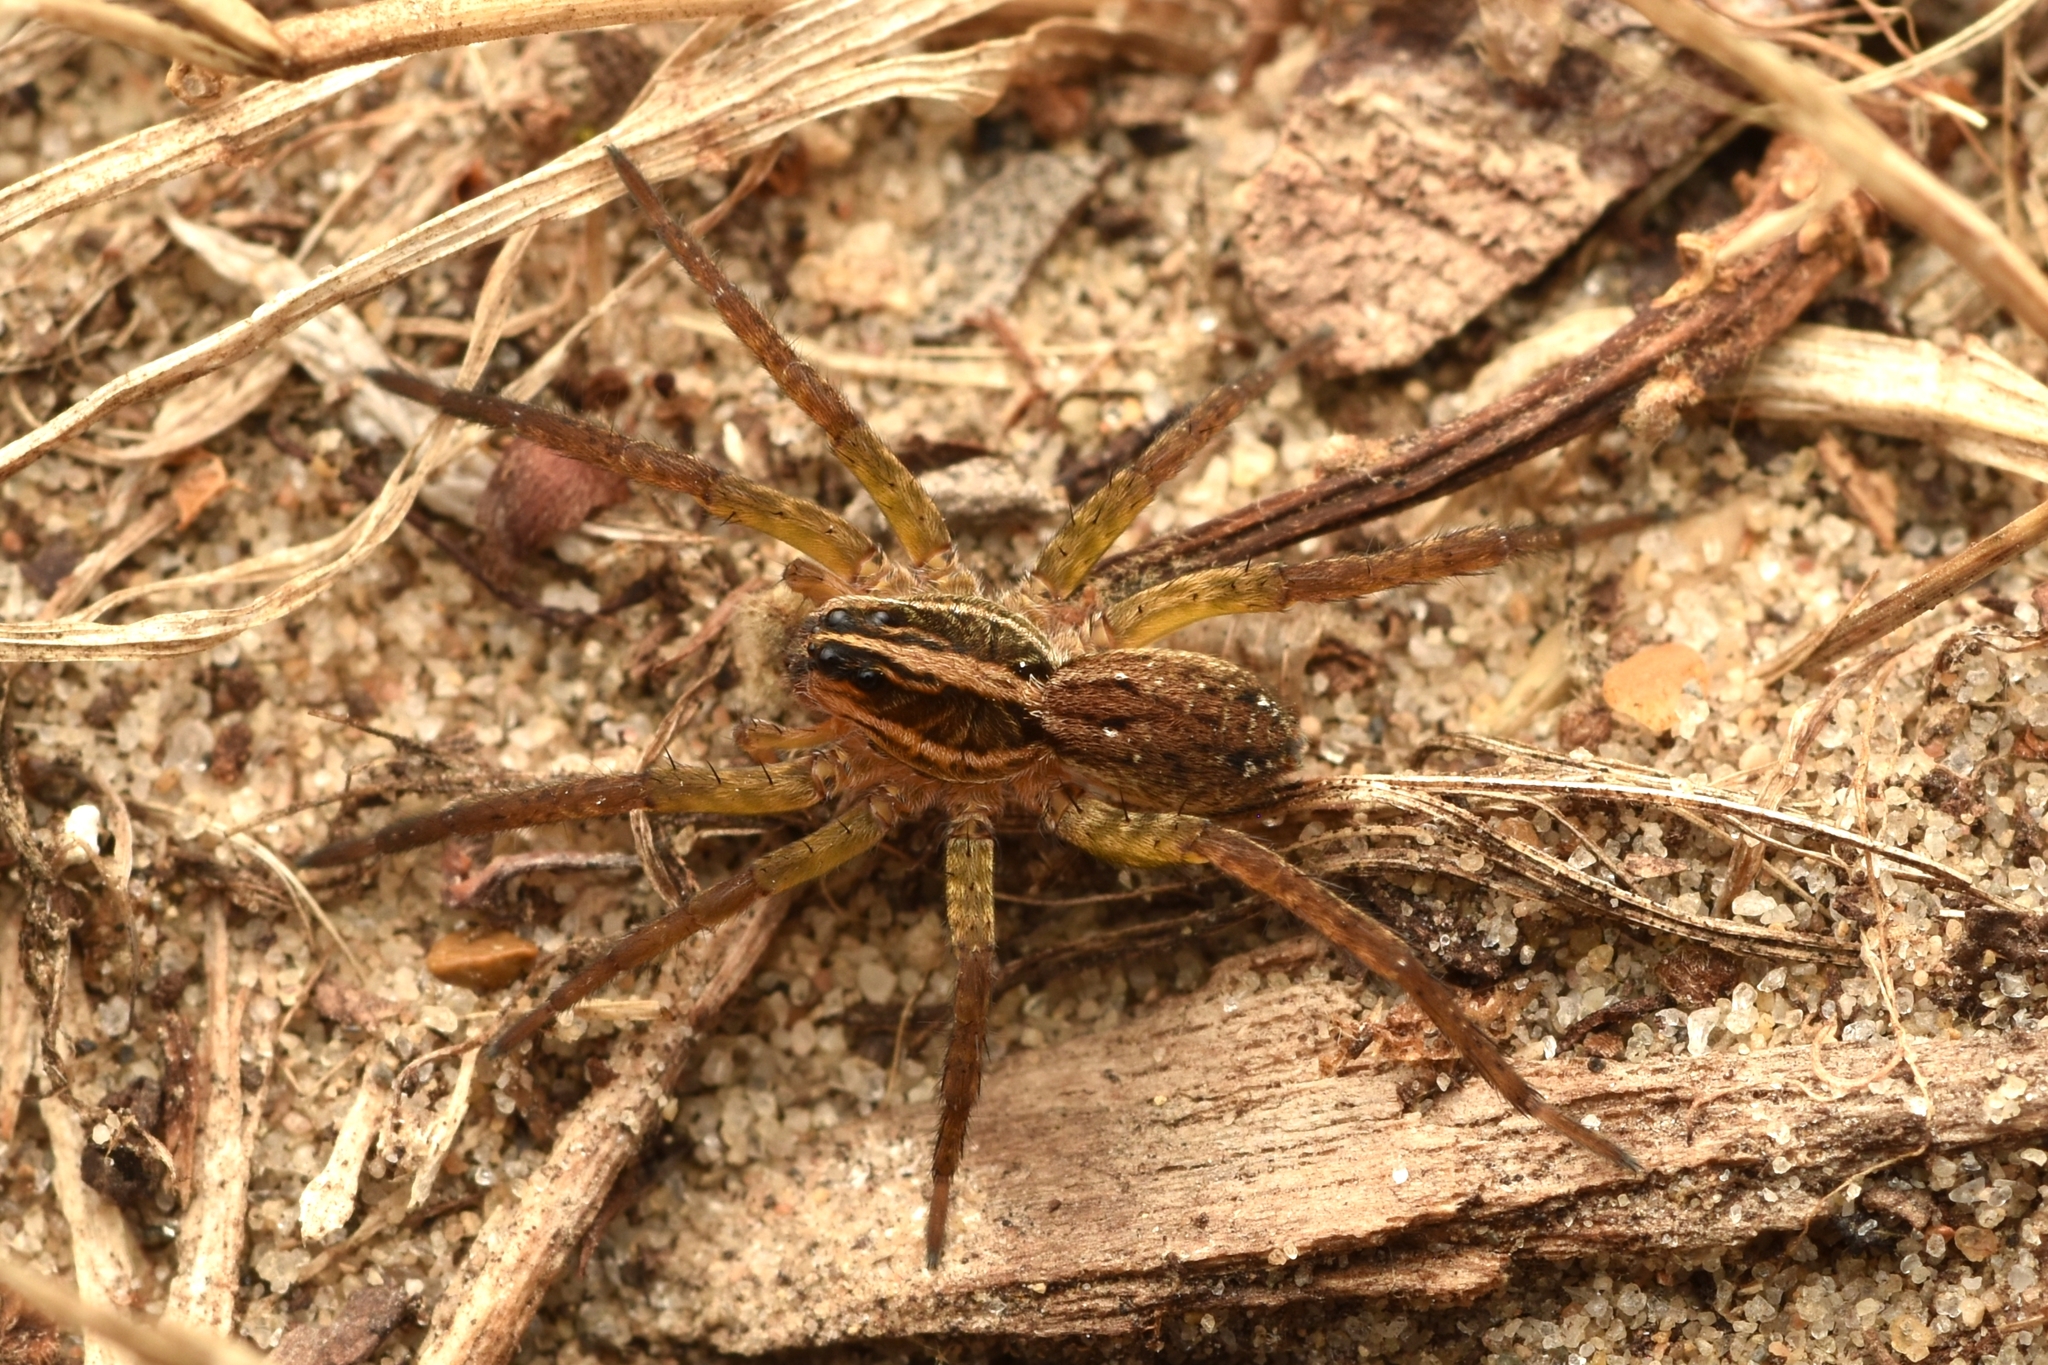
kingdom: Animalia
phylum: Arthropoda
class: Arachnida
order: Araneae
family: Lycosidae
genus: Tigrosa
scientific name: Tigrosa annexa
